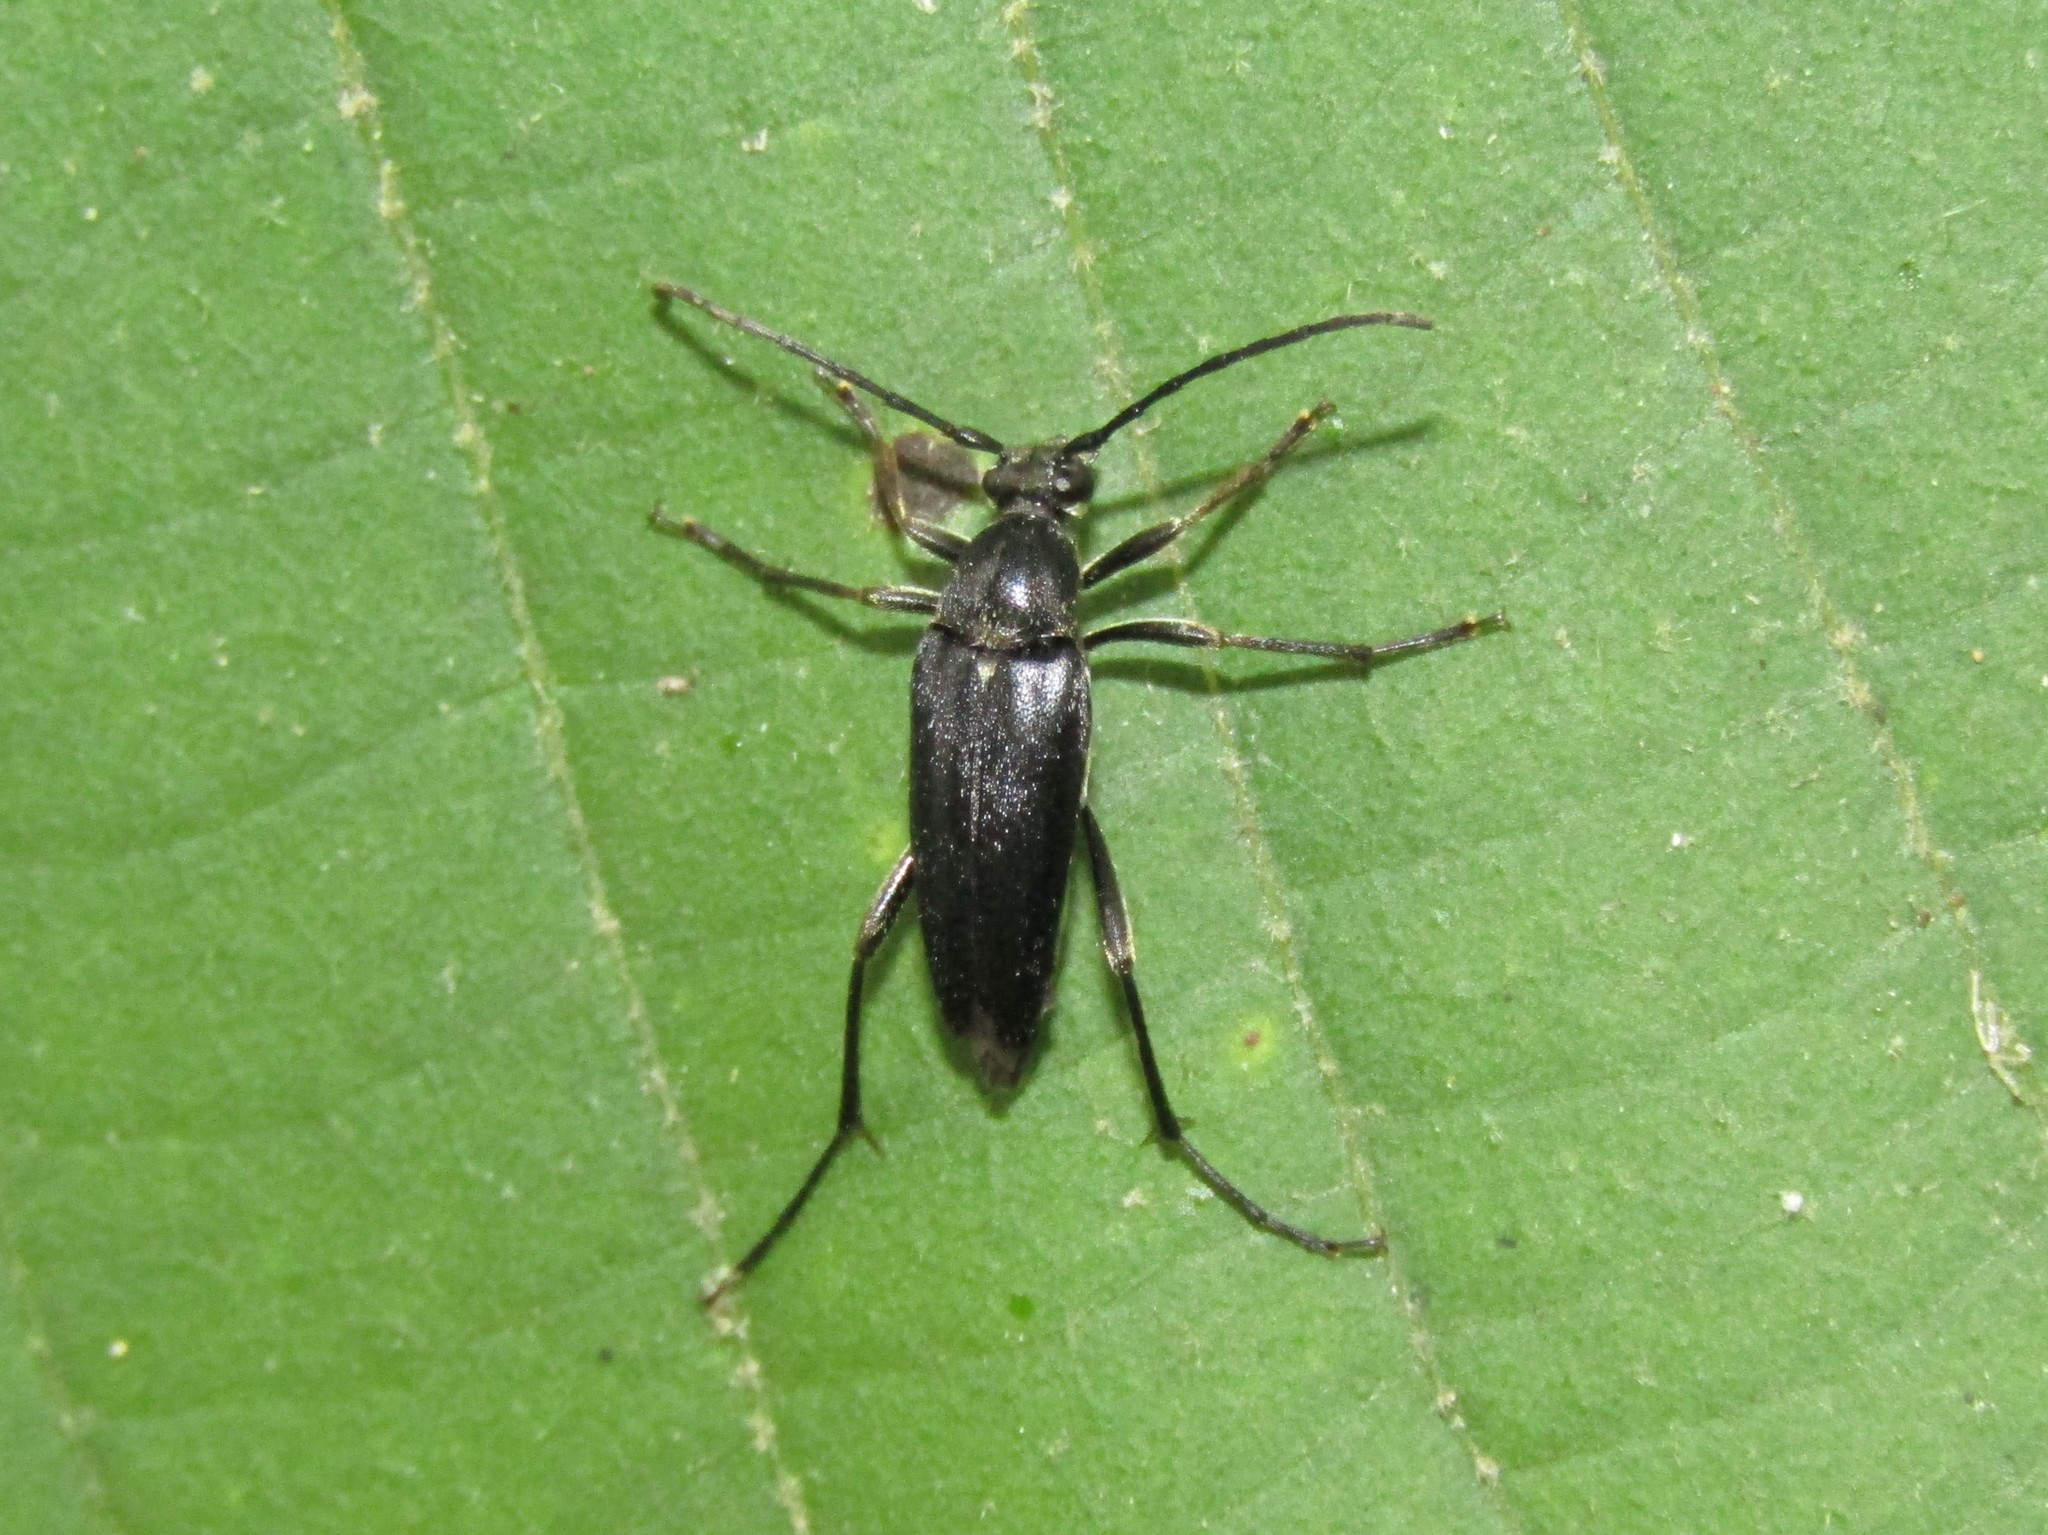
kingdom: Animalia
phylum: Arthropoda
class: Insecta
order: Coleoptera
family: Cerambycidae
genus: Typocerus
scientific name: Typocerus lugubris
